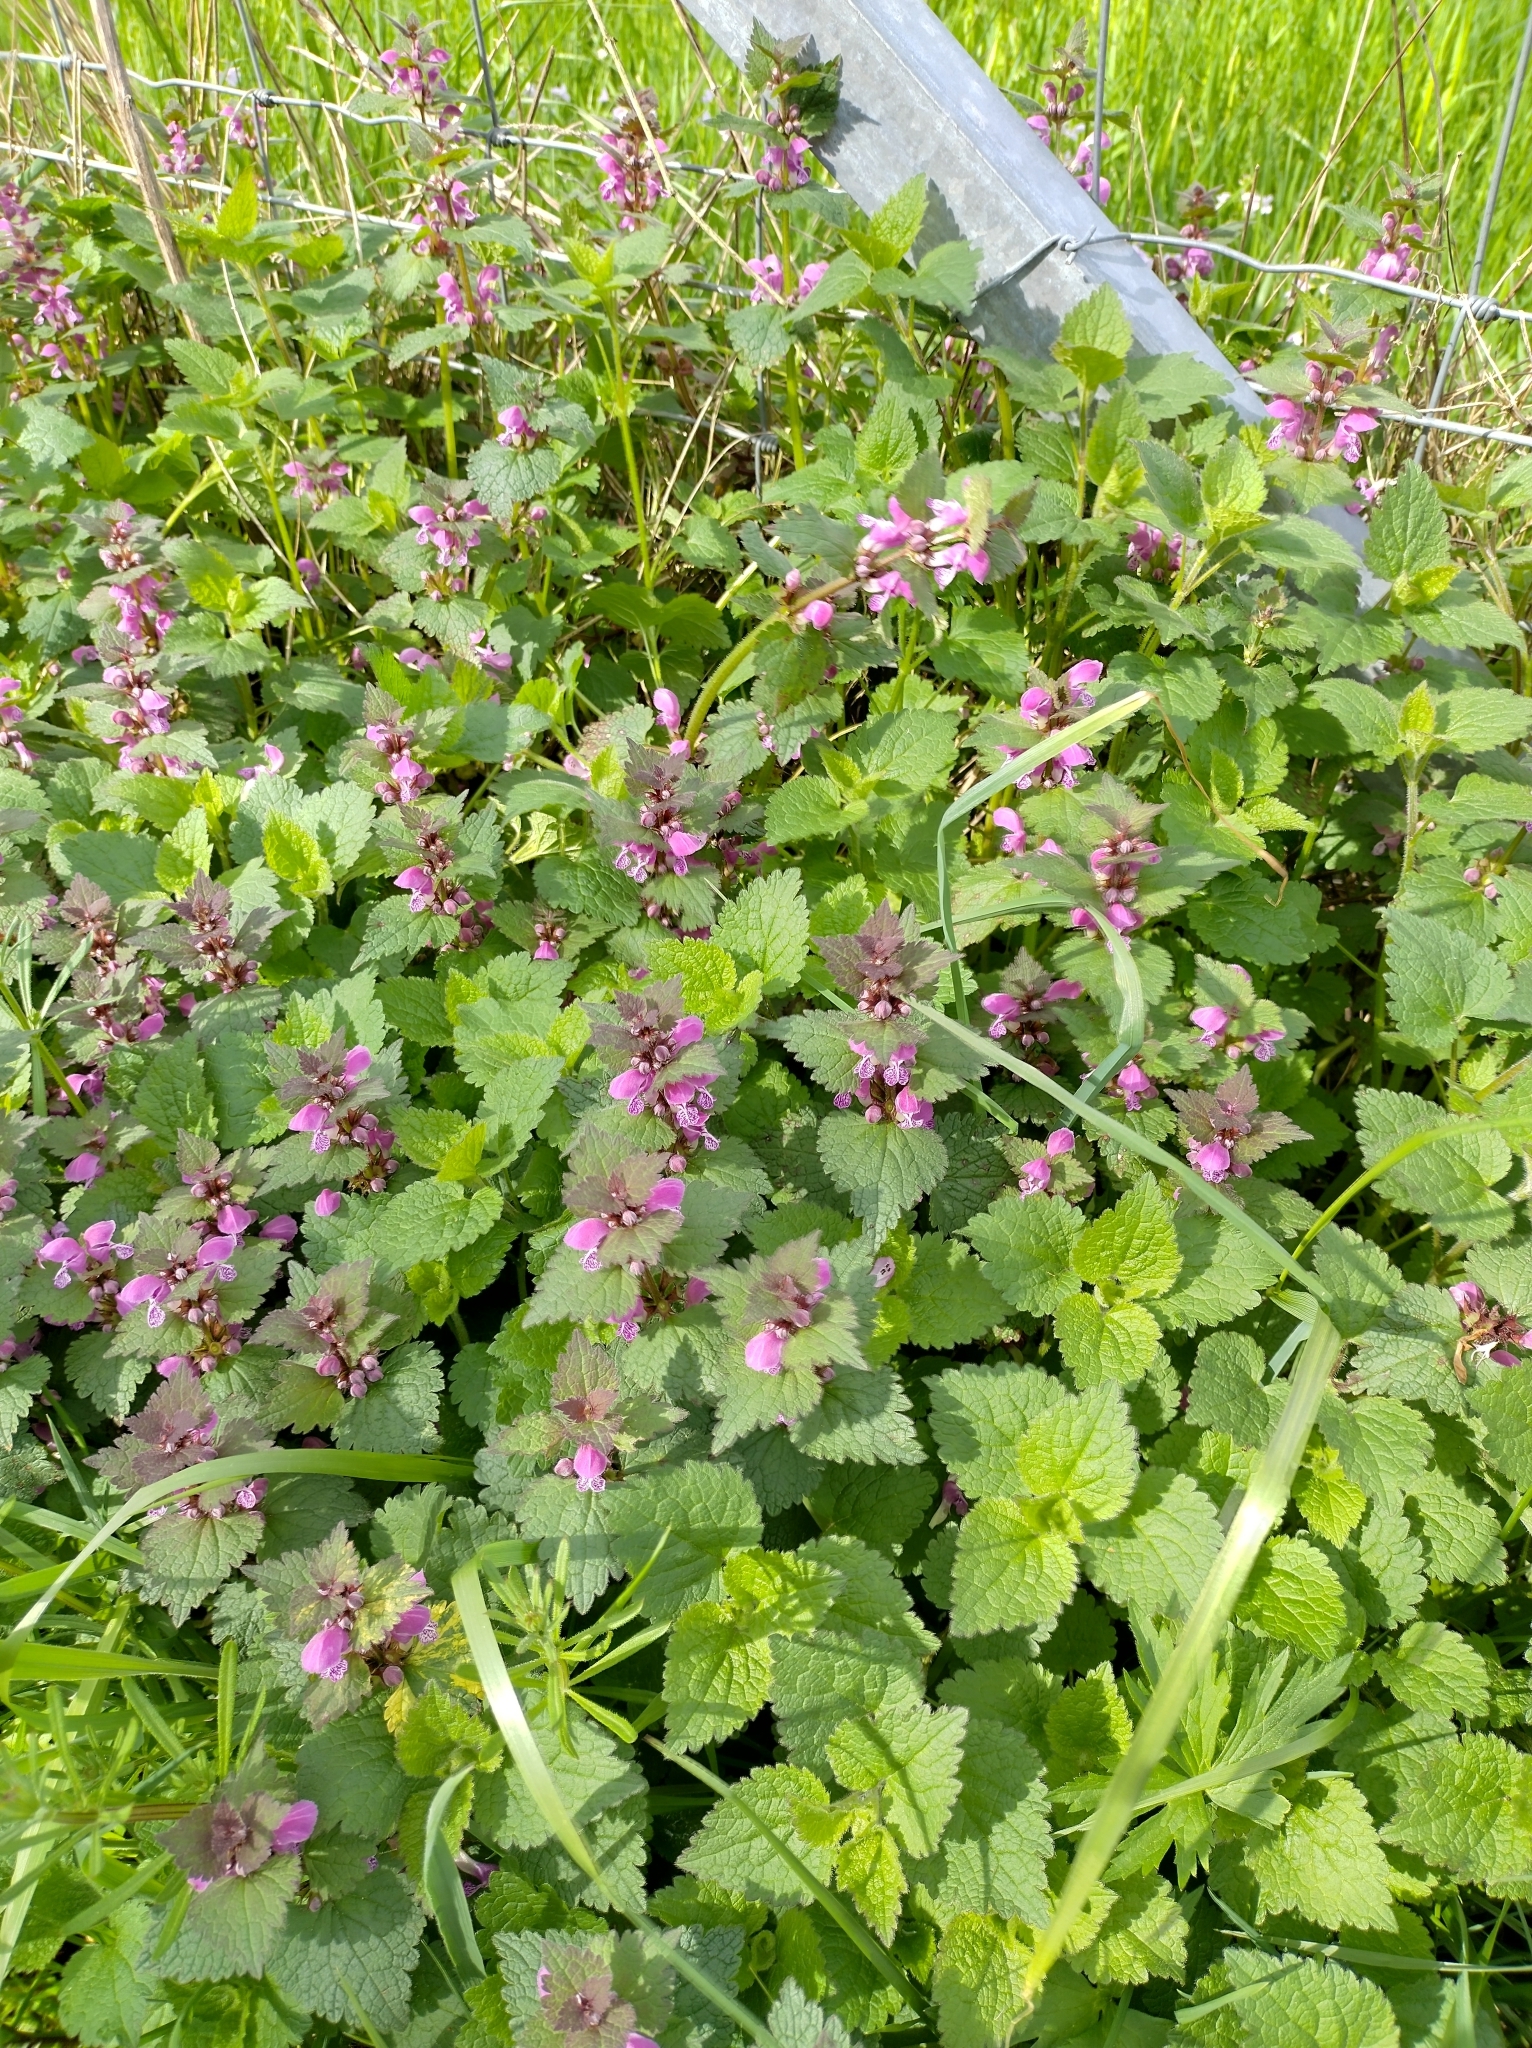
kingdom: Plantae
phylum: Tracheophyta
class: Magnoliopsida
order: Lamiales
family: Lamiaceae
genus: Lamium
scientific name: Lamium maculatum
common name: Spotted dead-nettle
